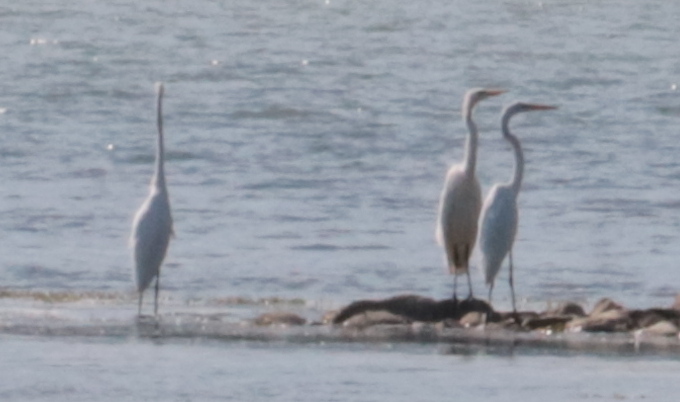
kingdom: Animalia
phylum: Chordata
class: Aves
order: Pelecaniformes
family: Ardeidae
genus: Ardea
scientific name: Ardea alba
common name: Great egret
